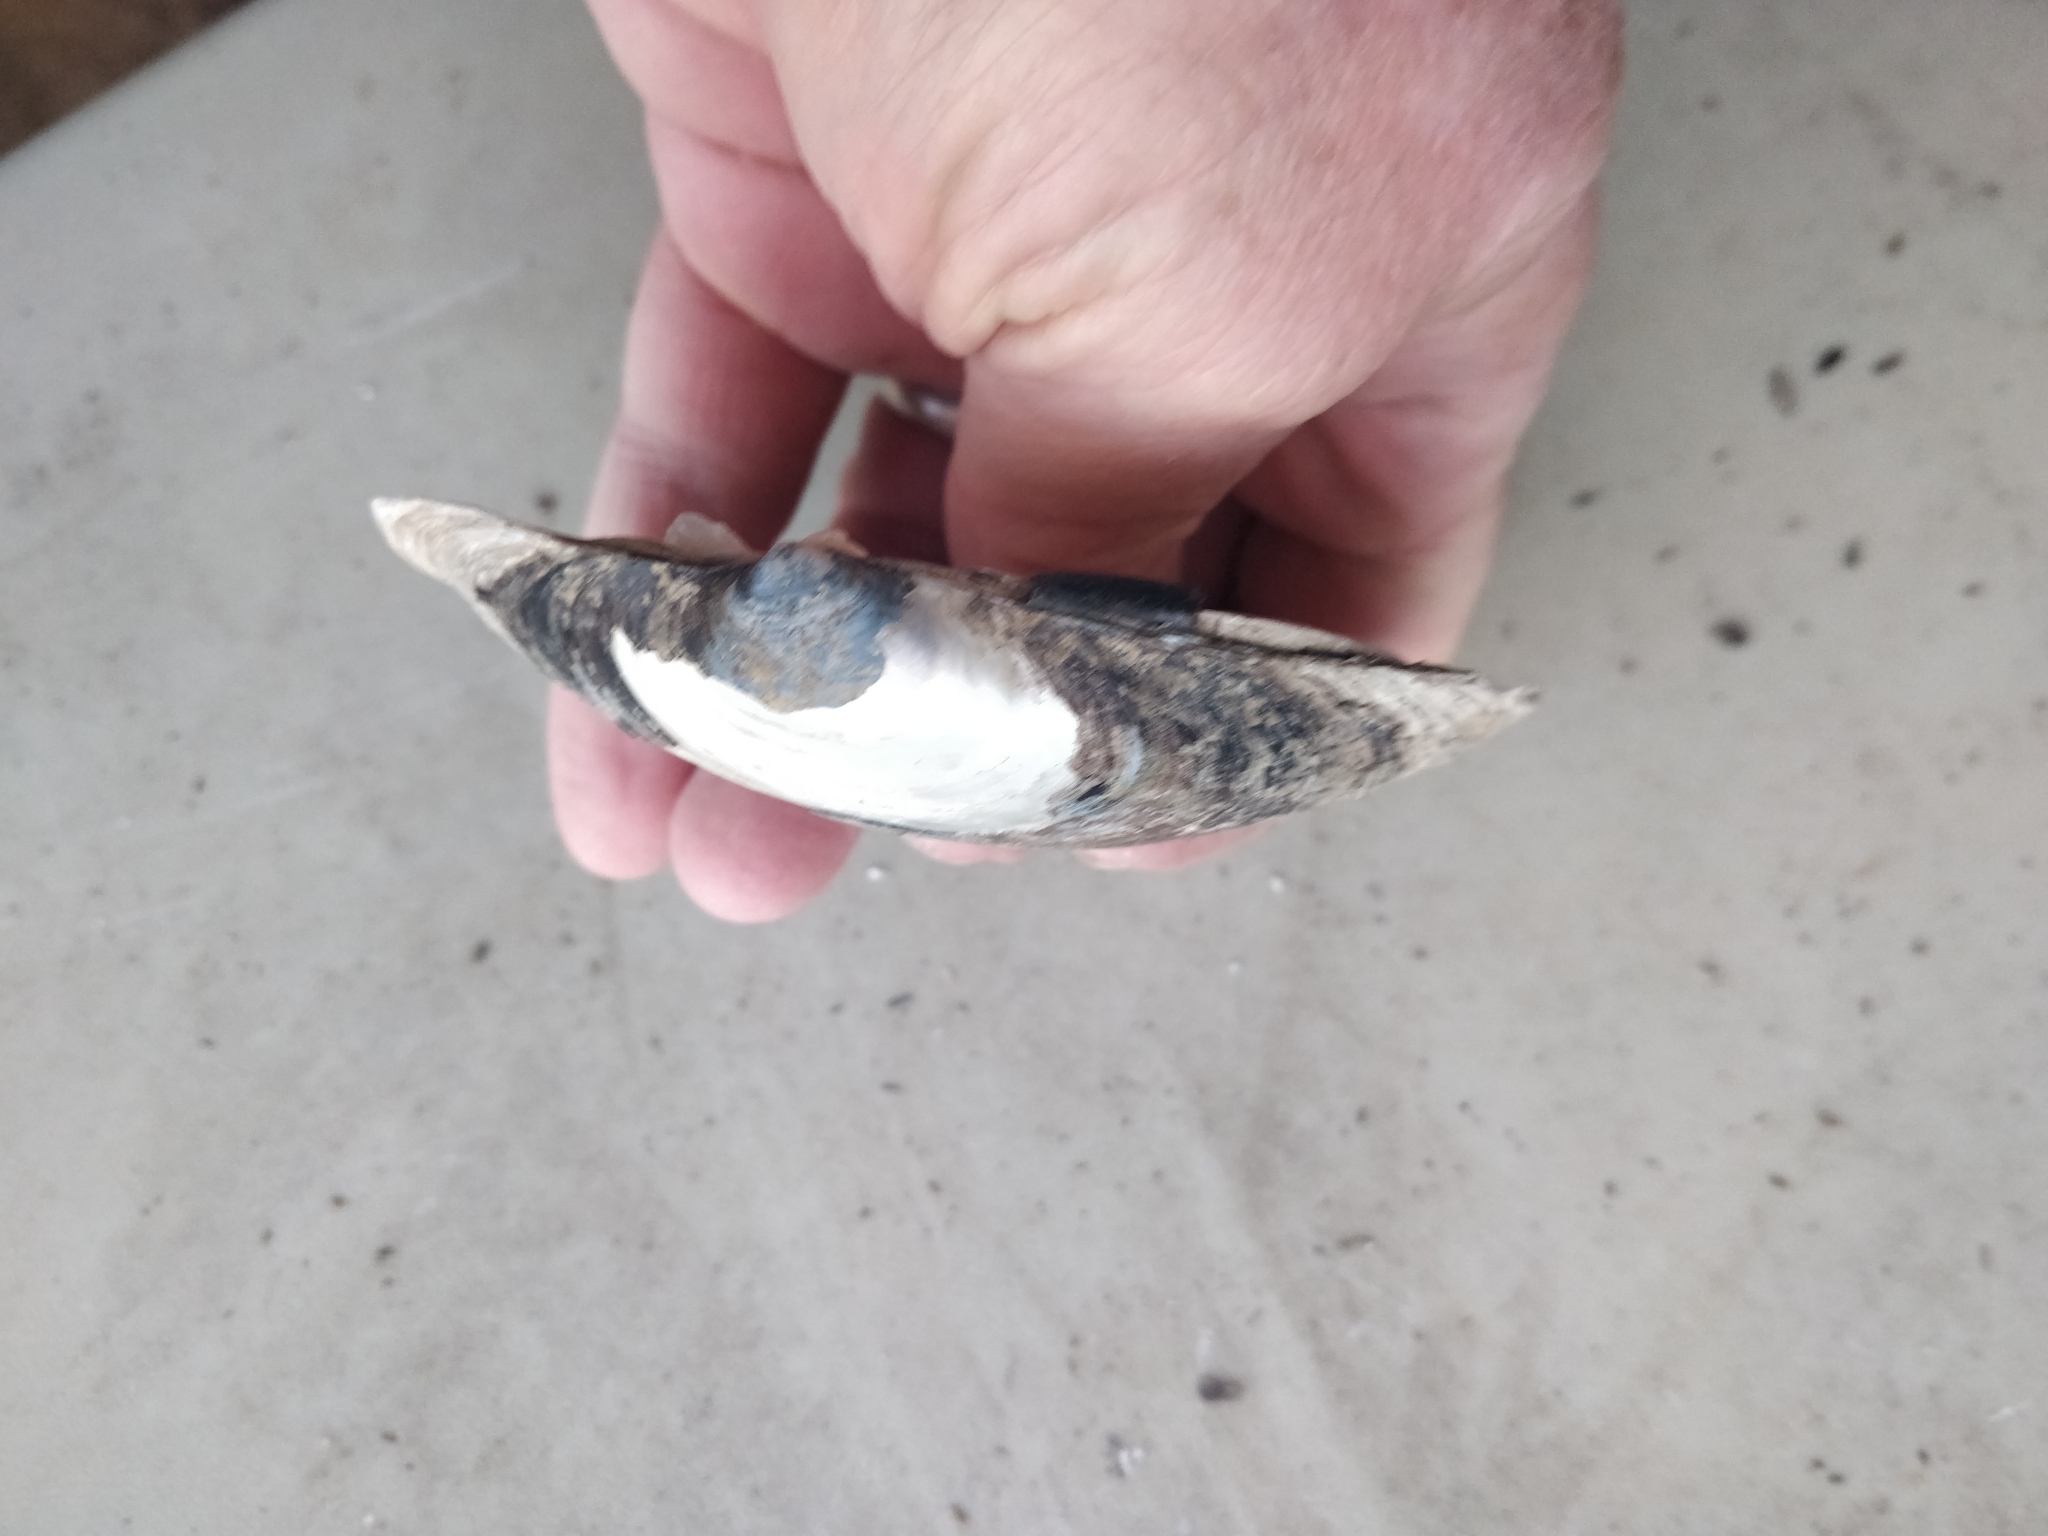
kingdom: Animalia
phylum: Mollusca
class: Bivalvia
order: Unionida
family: Unionidae
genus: Lampsilis
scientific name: Lampsilis cardium
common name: Plain pocketbook
